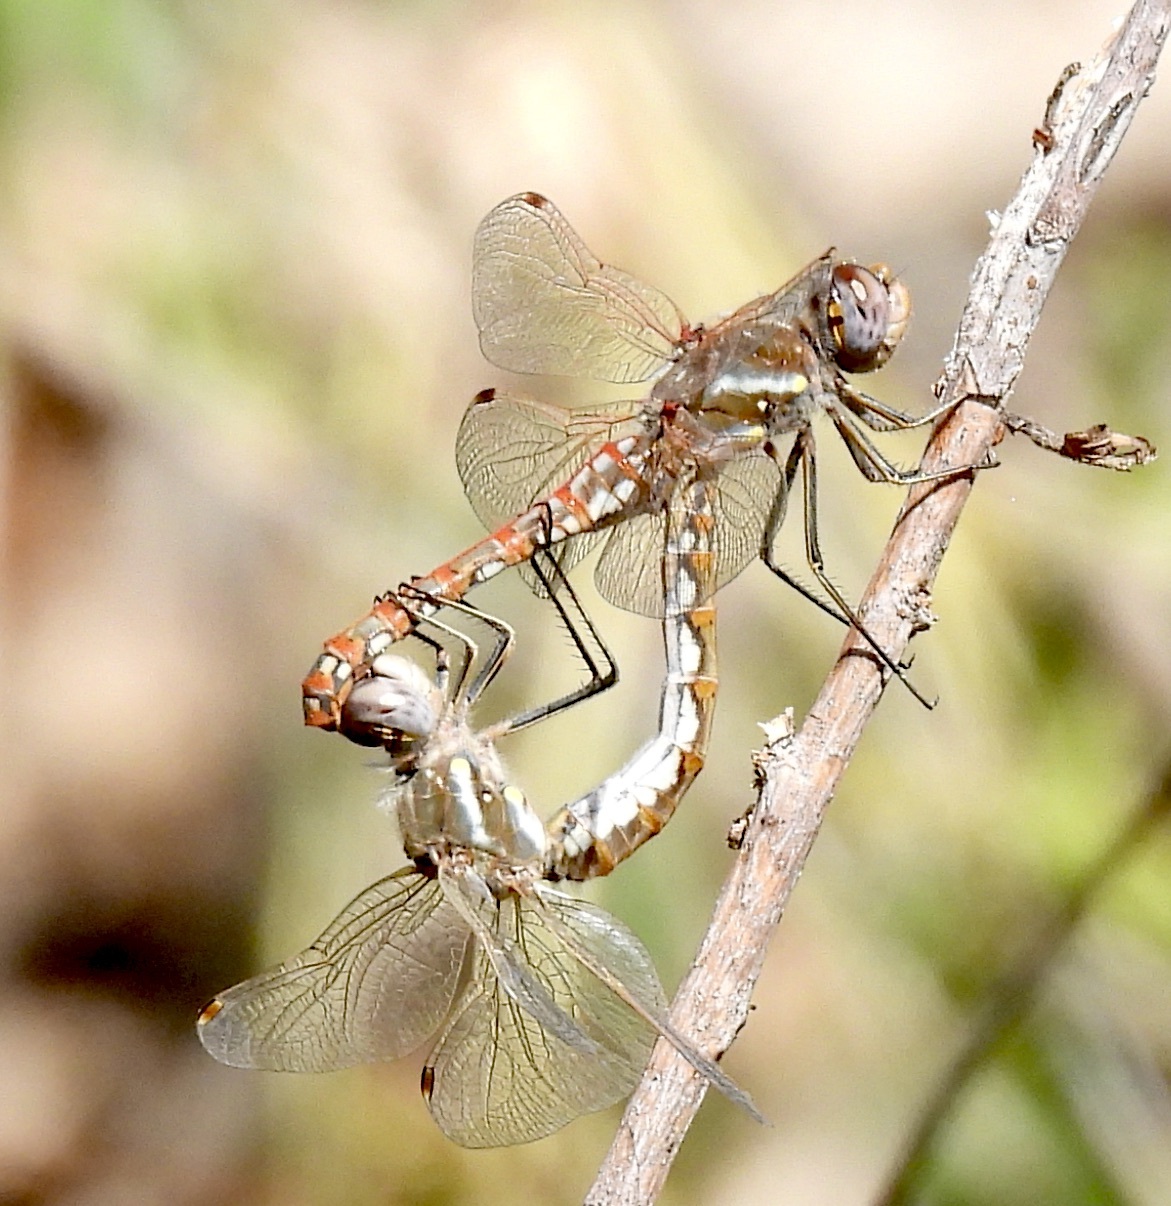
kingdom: Animalia
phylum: Arthropoda
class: Insecta
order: Odonata
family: Libellulidae
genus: Sympetrum
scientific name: Sympetrum corruptum
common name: Variegated meadowhawk
